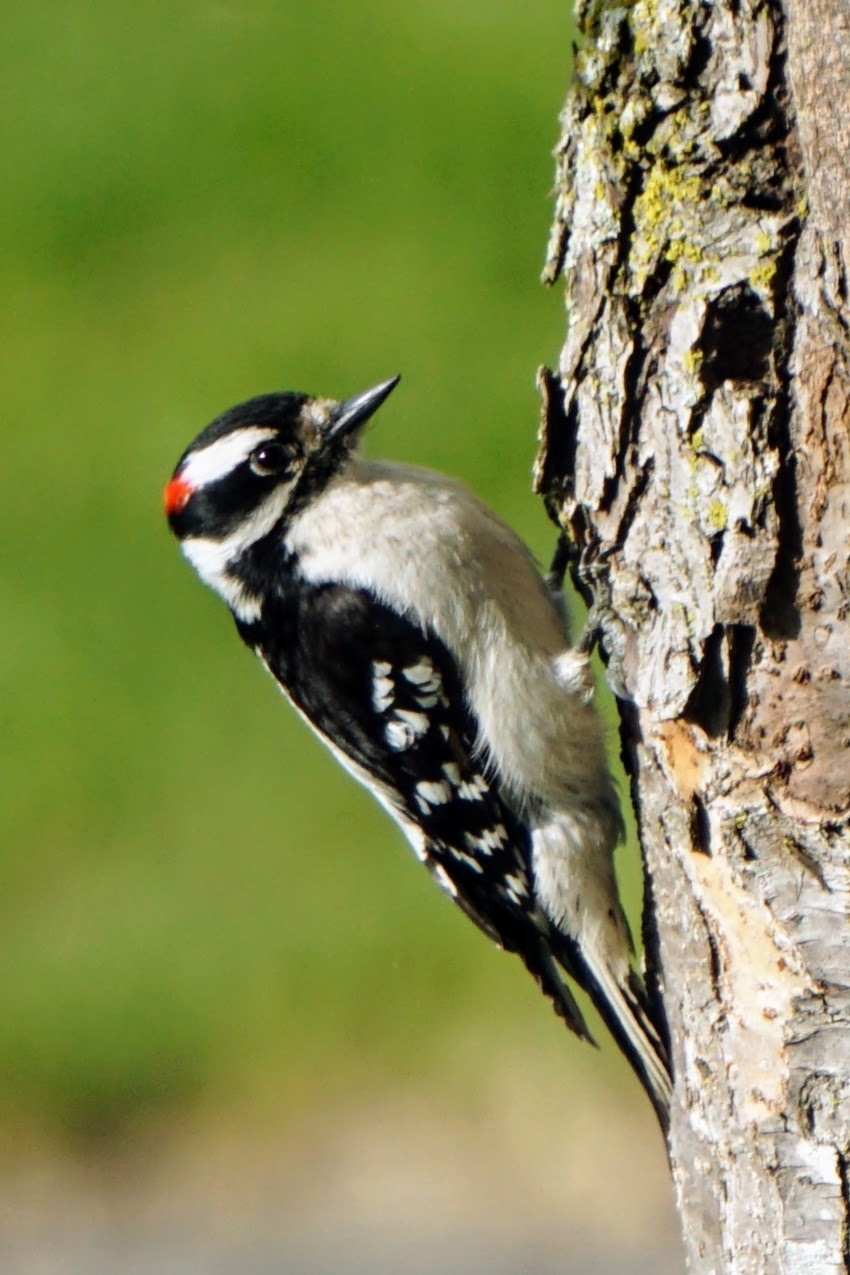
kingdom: Animalia
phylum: Chordata
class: Aves
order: Piciformes
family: Picidae
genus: Dryobates
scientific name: Dryobates pubescens
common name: Downy woodpecker
